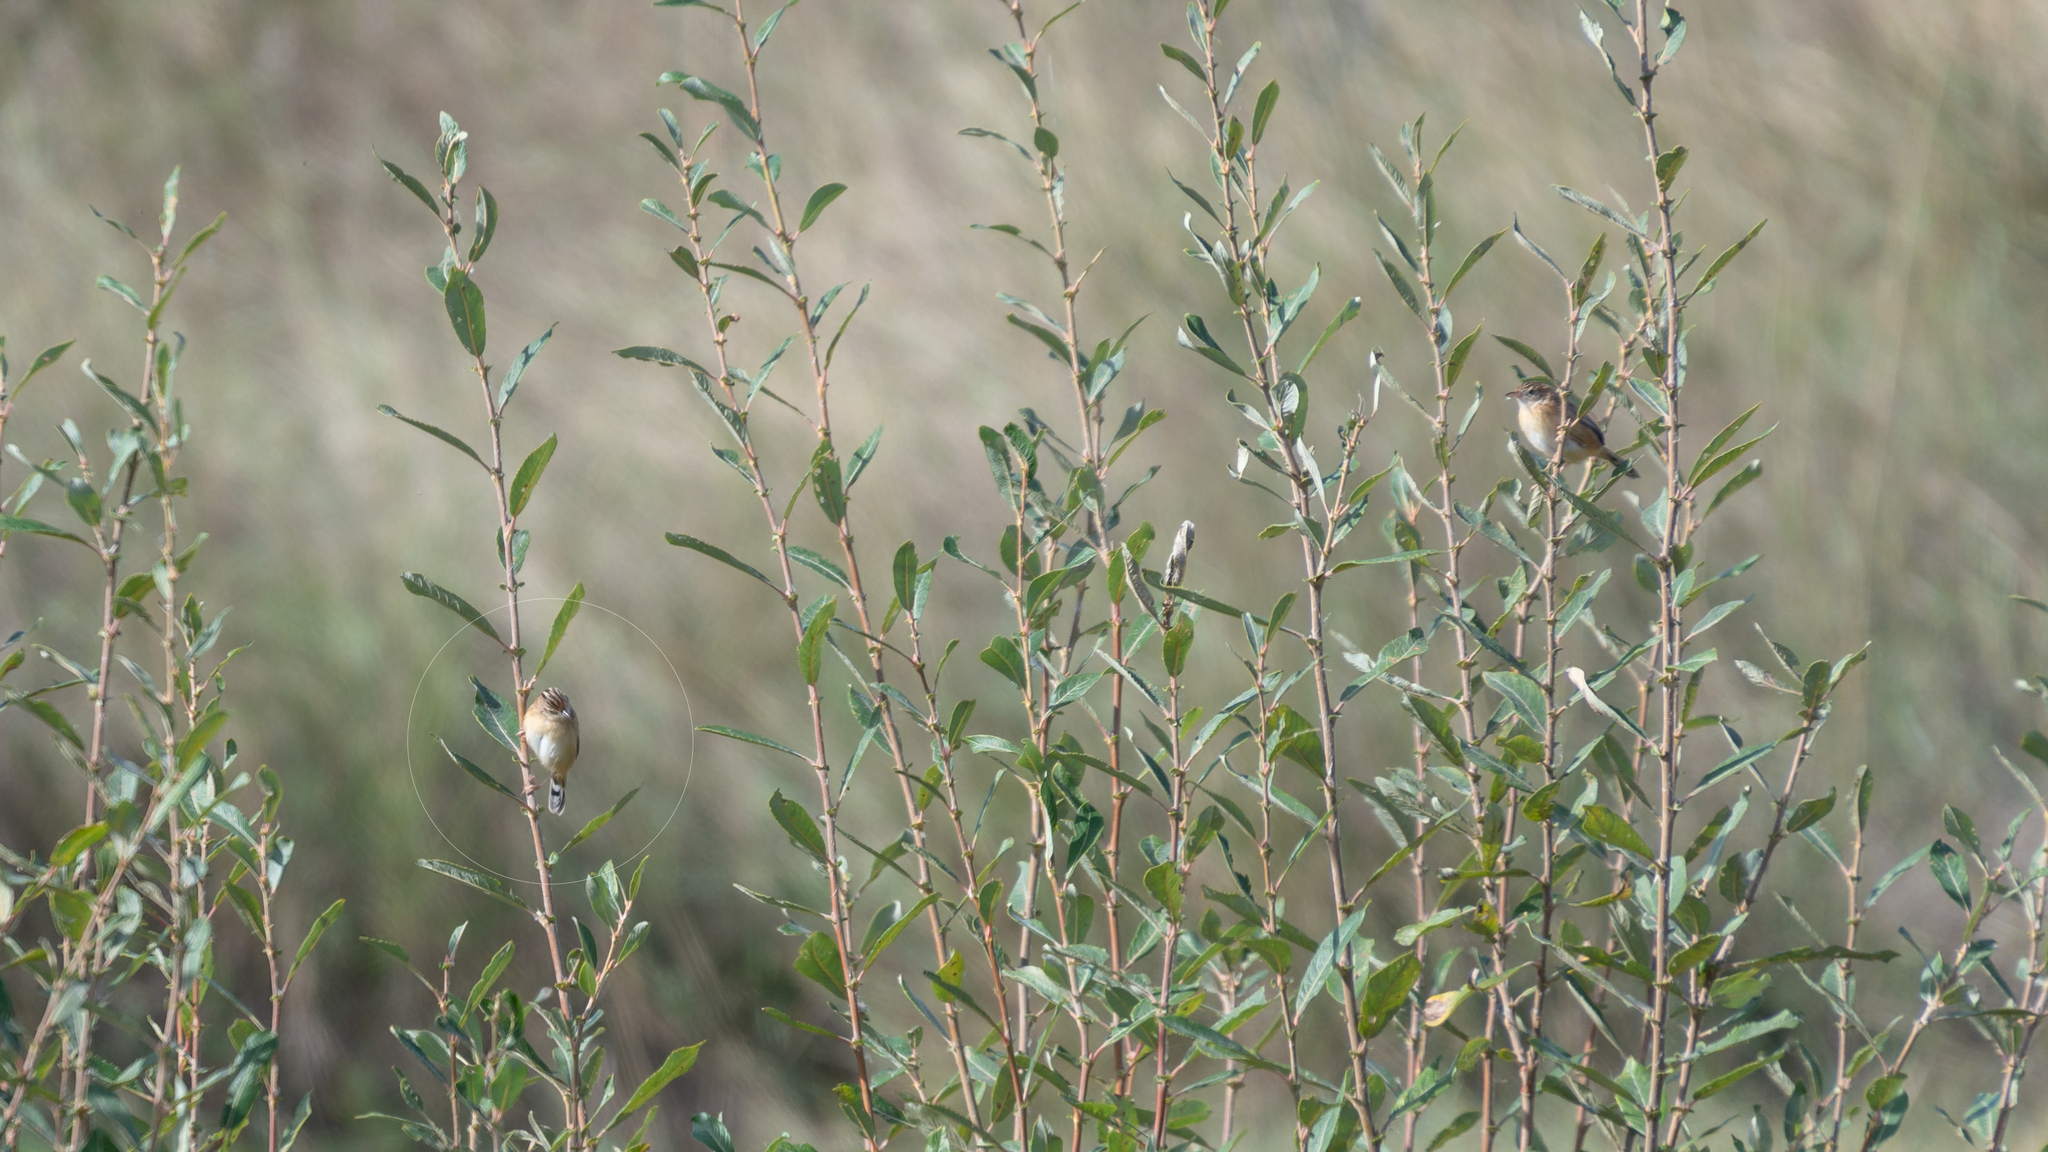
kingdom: Animalia
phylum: Chordata
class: Aves
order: Passeriformes
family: Cisticolidae
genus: Cisticola
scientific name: Cisticola juncidis
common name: Zitting cisticola
